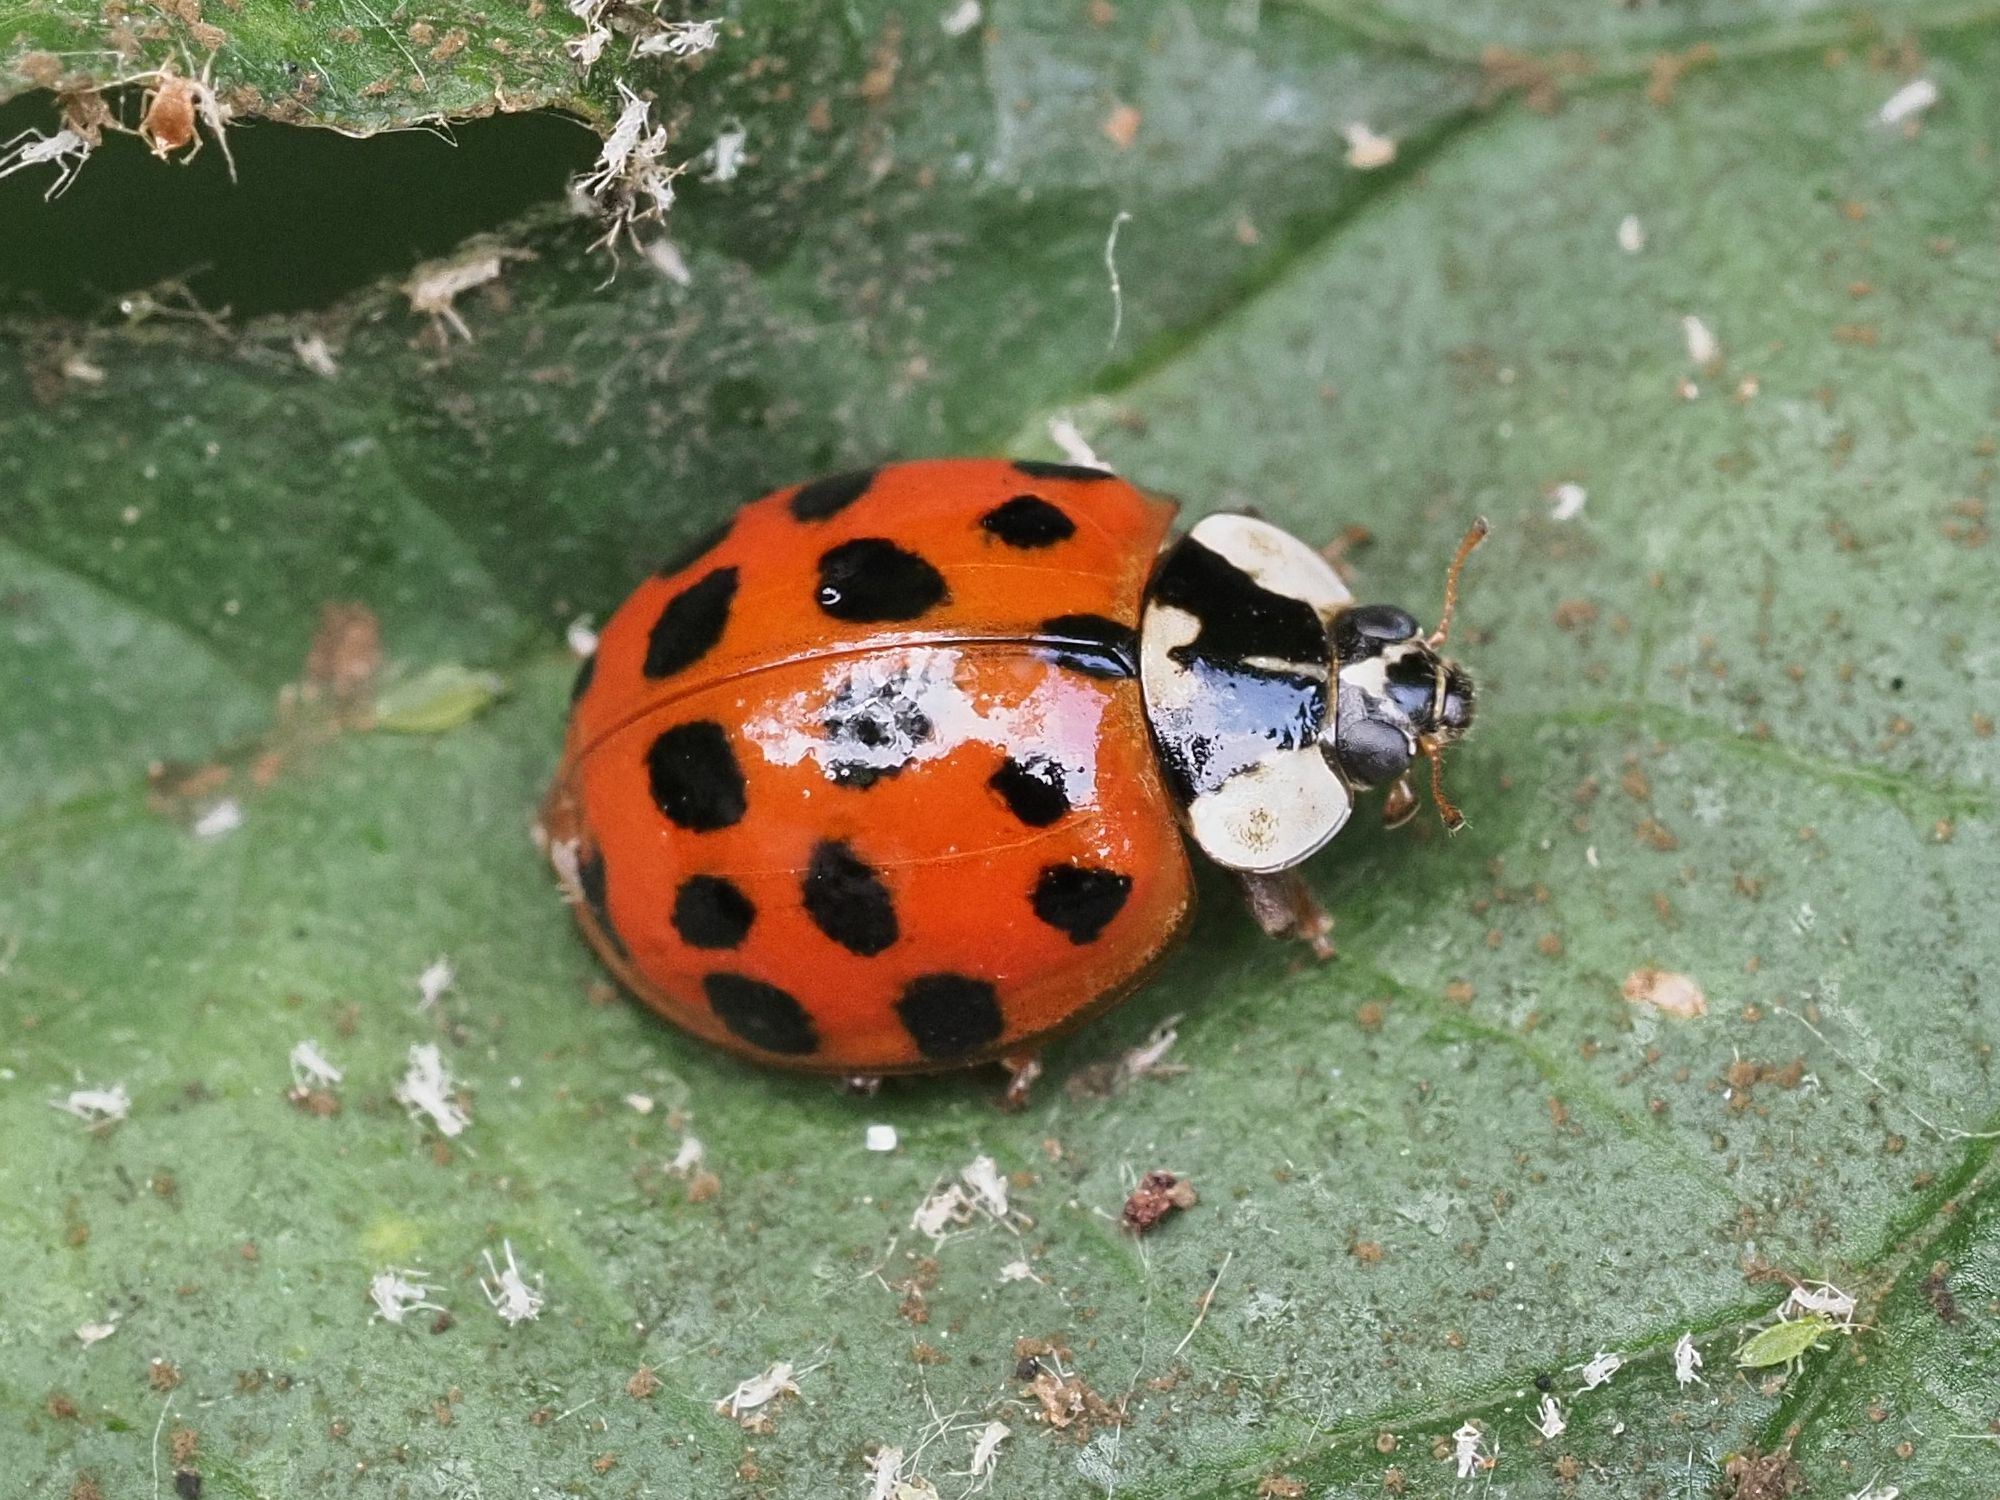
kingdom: Animalia
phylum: Arthropoda
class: Insecta
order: Coleoptera
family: Coccinellidae
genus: Harmonia
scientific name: Harmonia axyridis
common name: Harlequin ladybird
